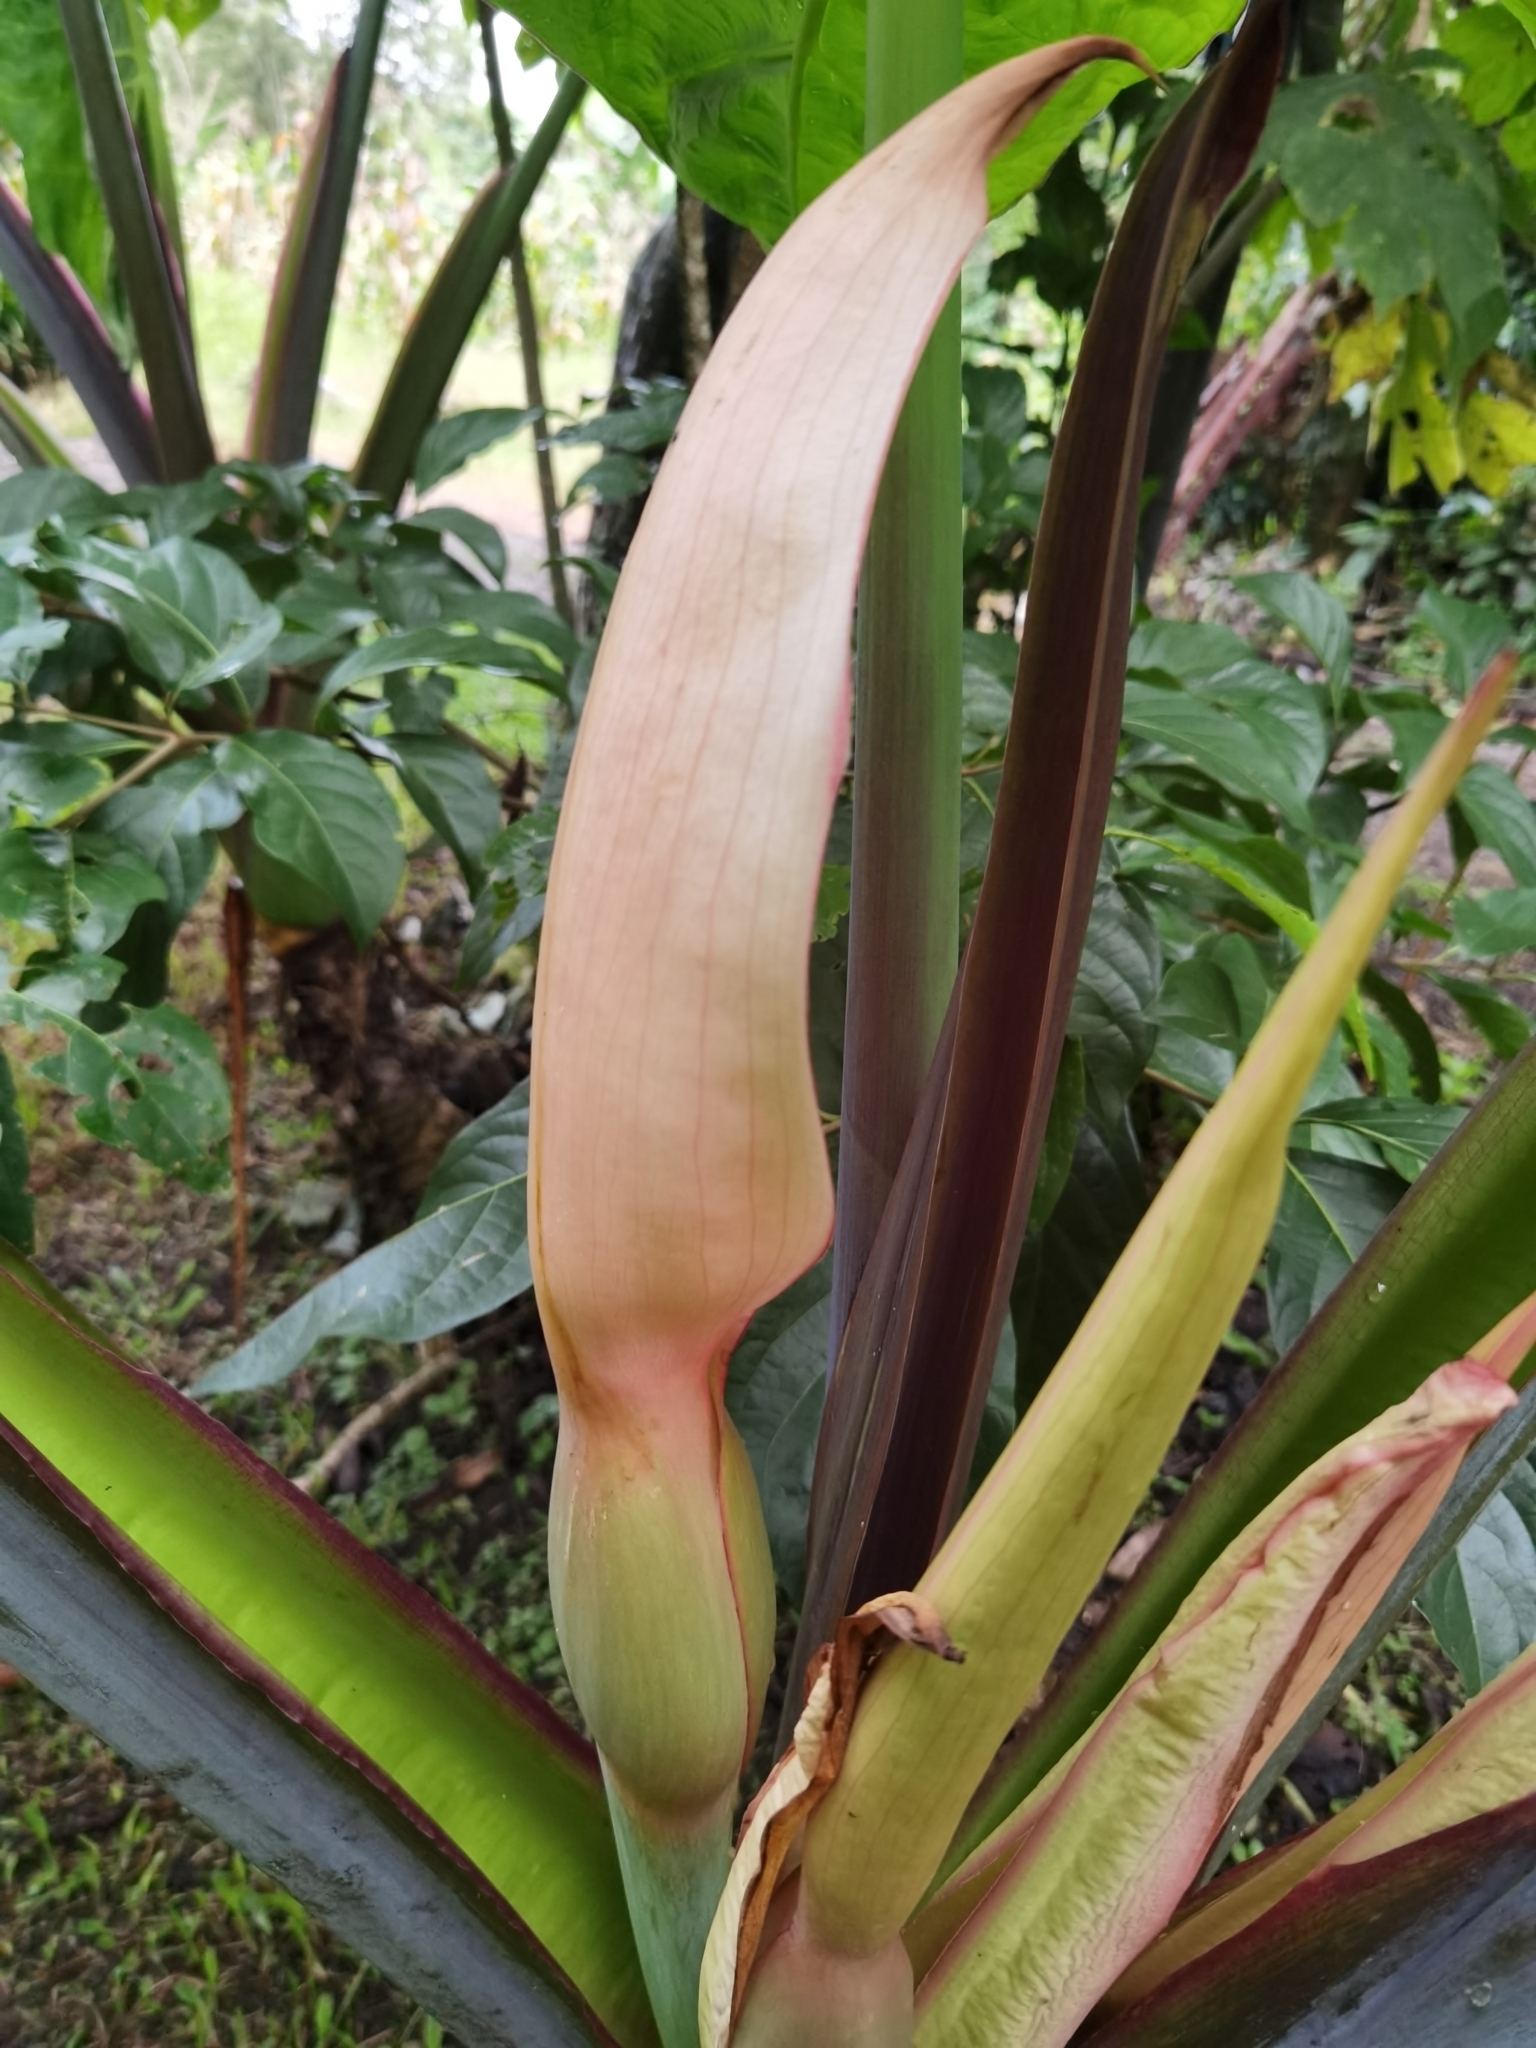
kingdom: Plantae
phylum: Tracheophyta
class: Liliopsida
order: Alismatales
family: Araceae
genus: Xanthosoma
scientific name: Xanthosoma robustum
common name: Capote
